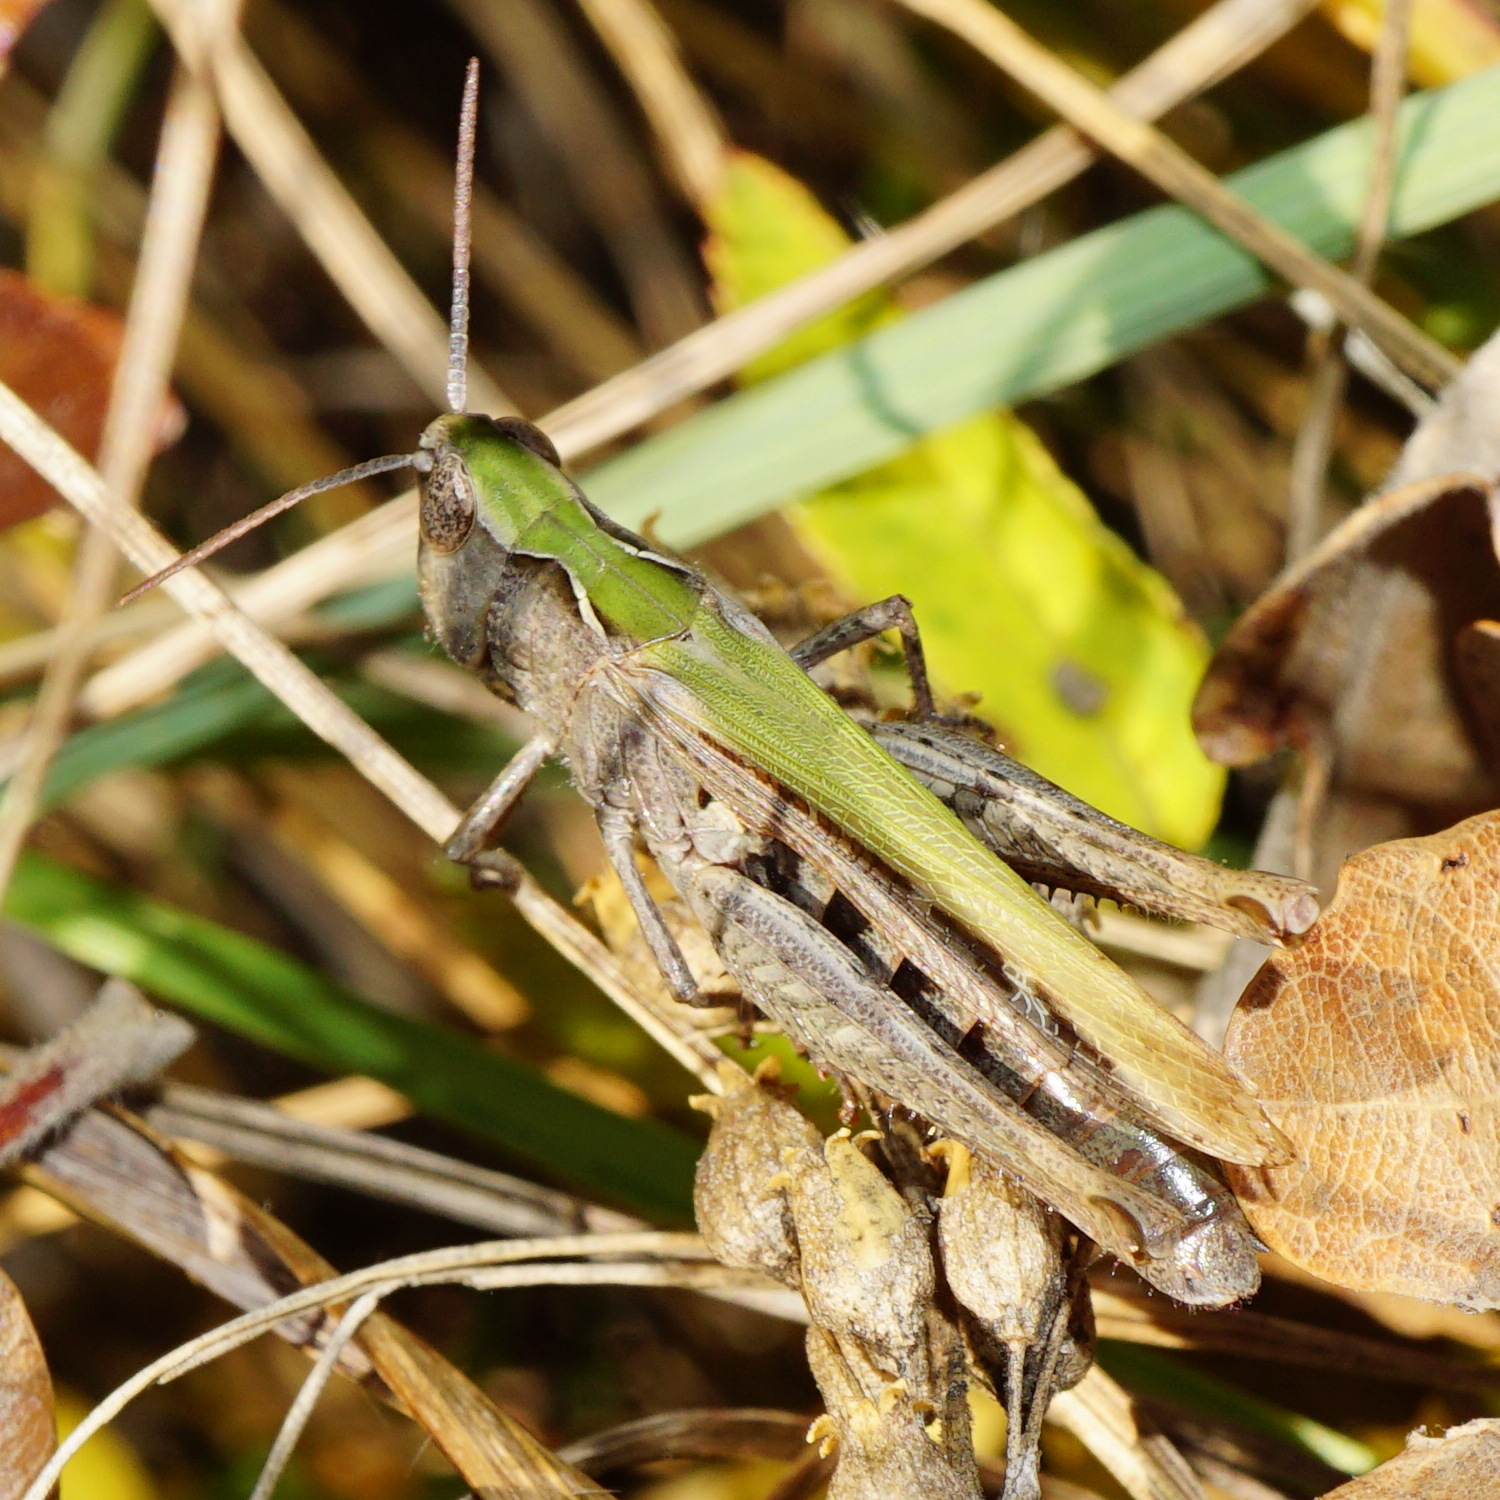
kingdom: Animalia
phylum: Arthropoda
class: Insecta
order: Orthoptera
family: Acrididae
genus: Glyptobothrus
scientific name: Glyptobothrus
